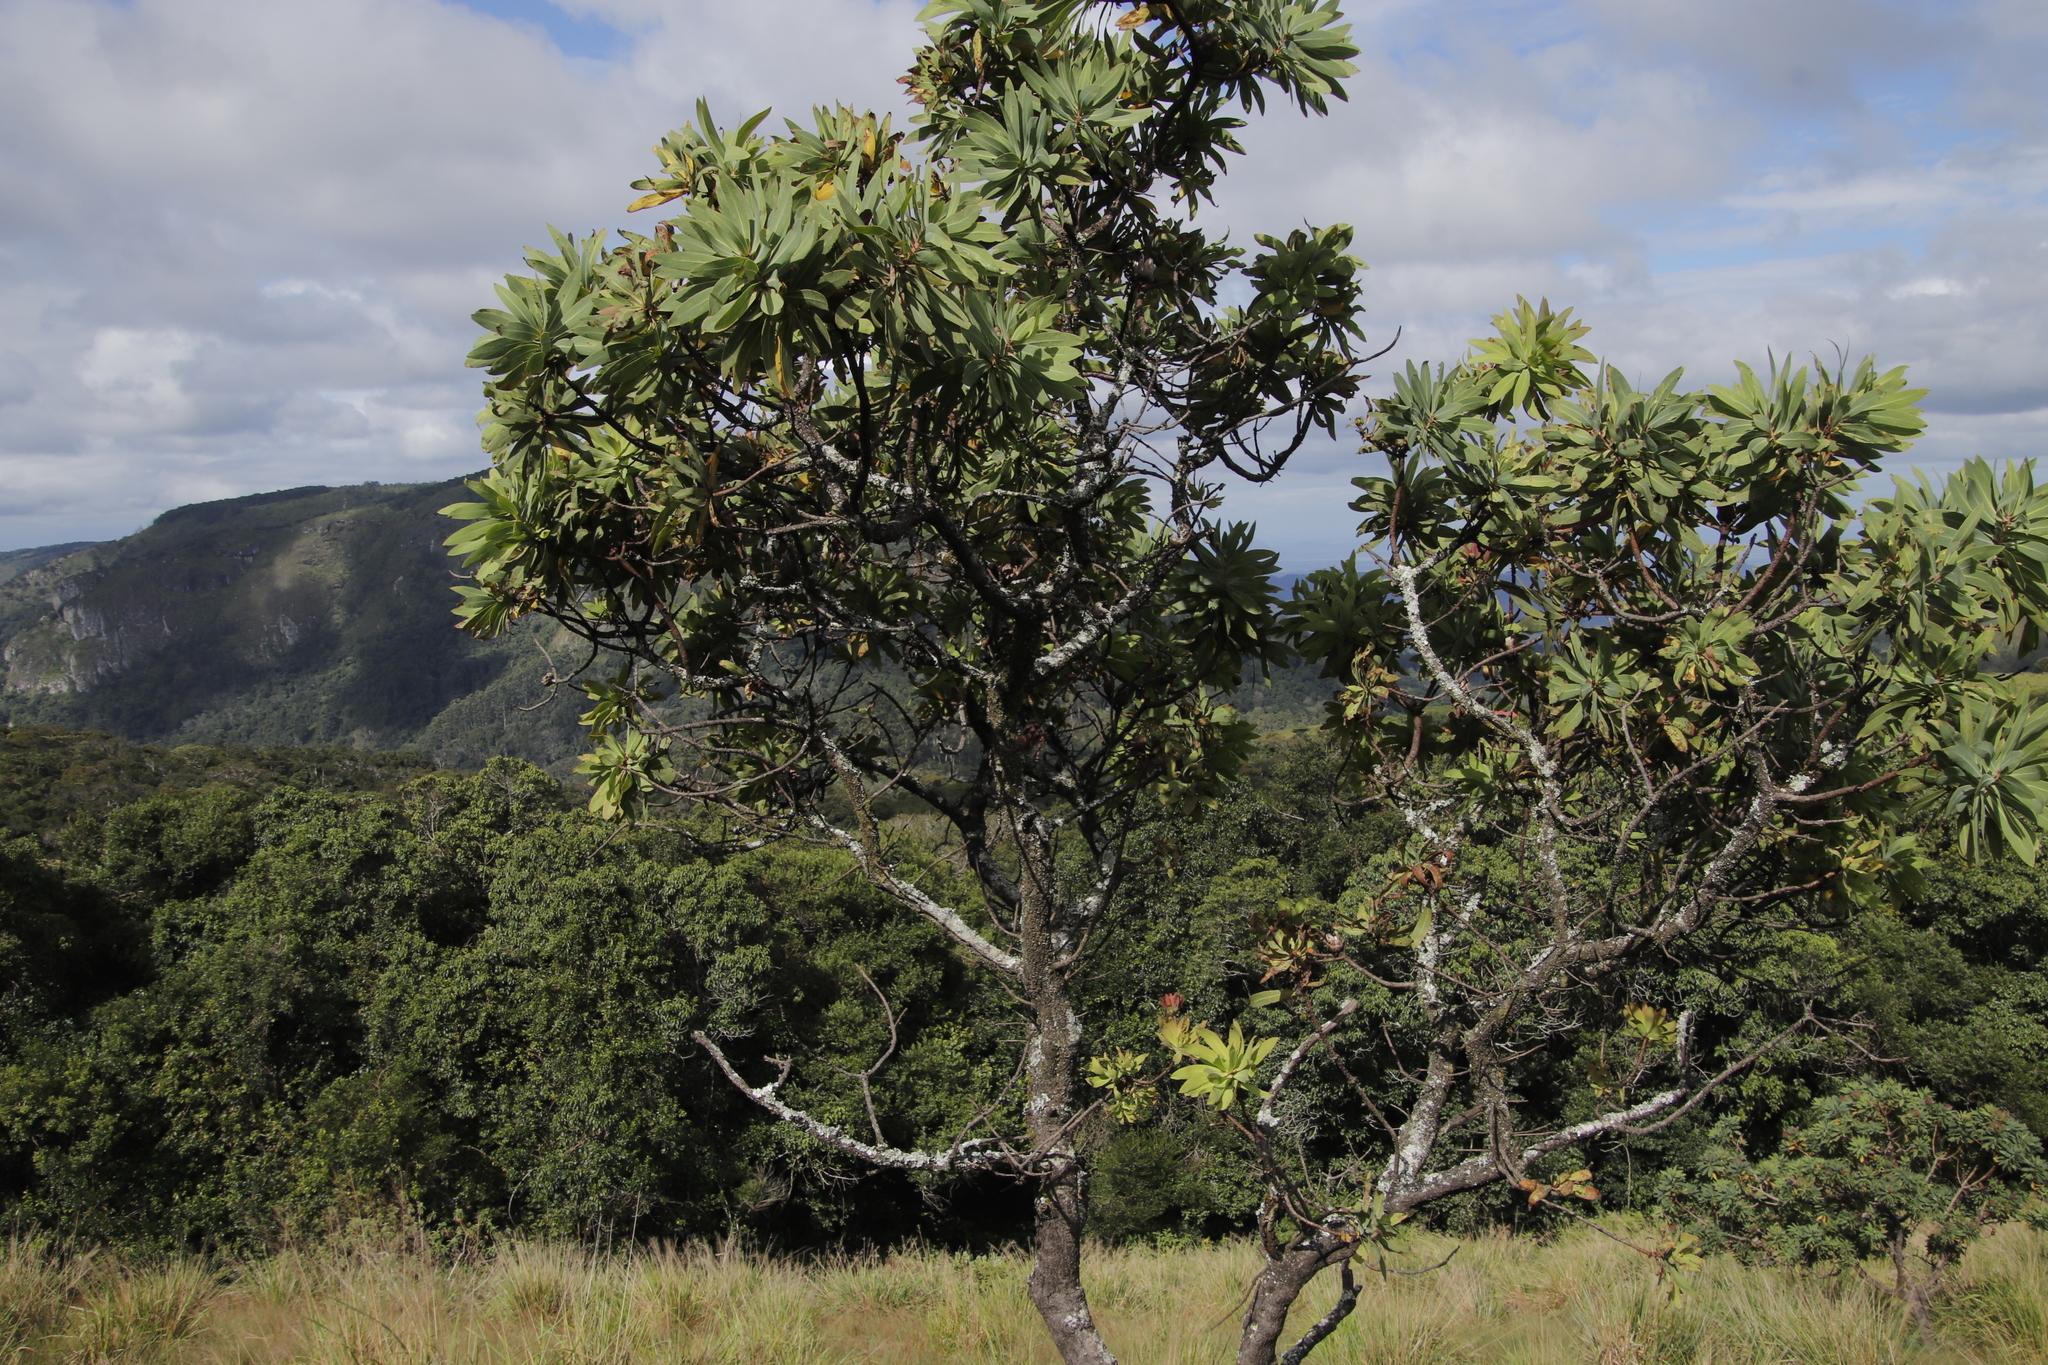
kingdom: Plantae
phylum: Tracheophyta
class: Magnoliopsida
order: Proteales
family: Proteaceae
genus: Protea
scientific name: Protea caffra
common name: Common sugarbush
